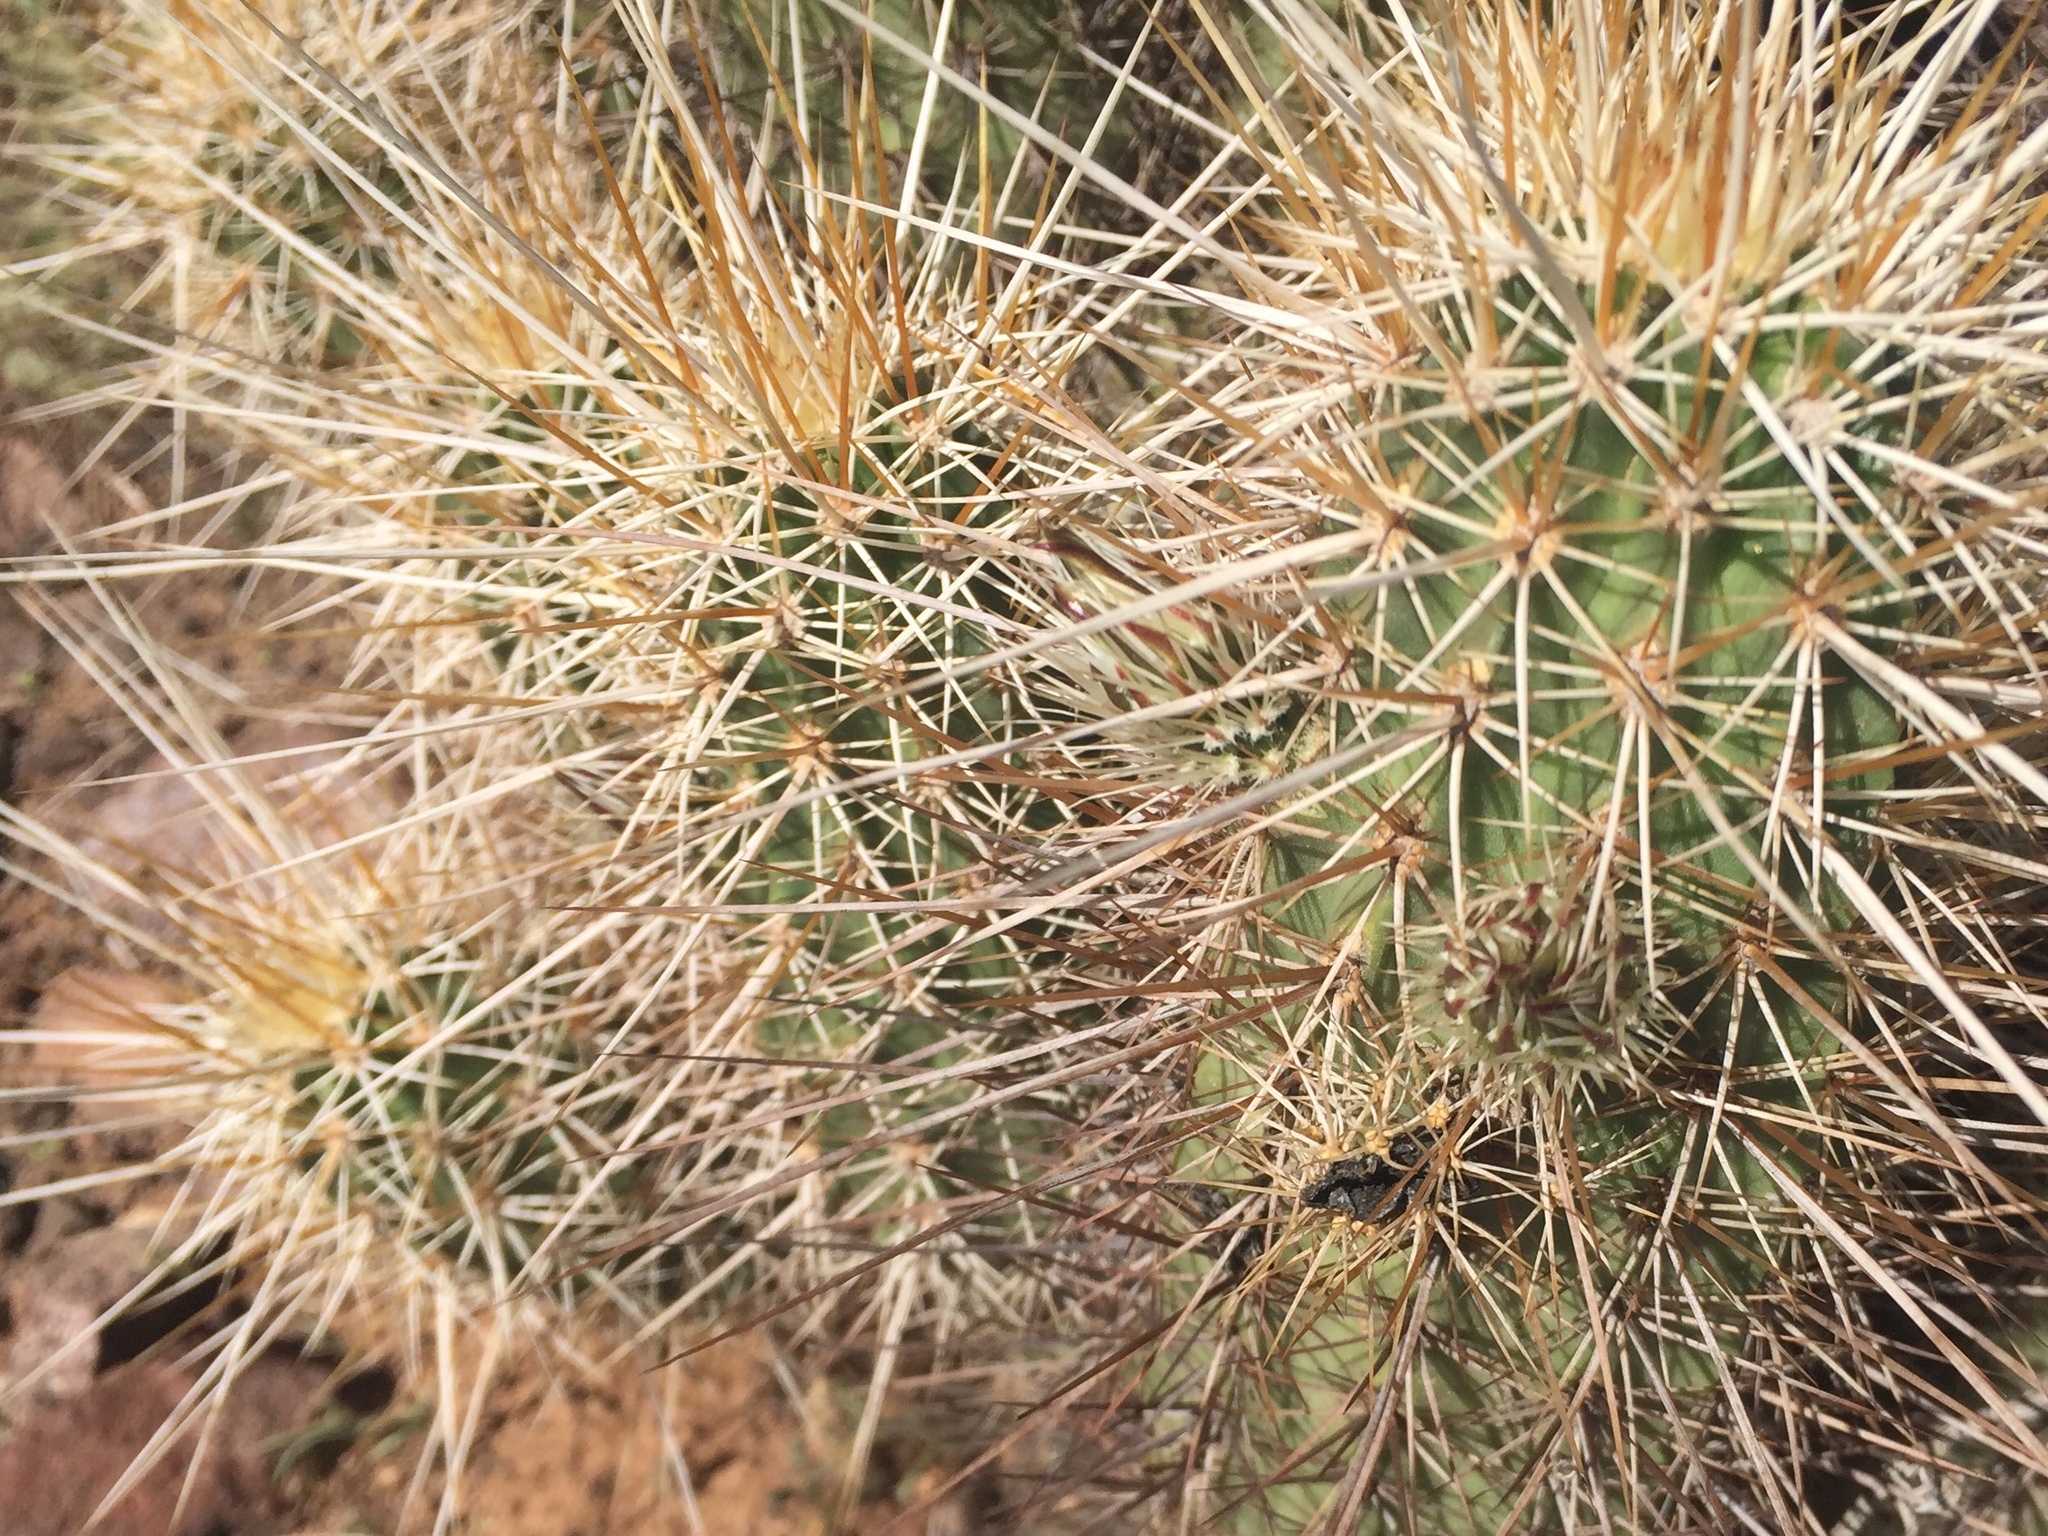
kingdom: Plantae
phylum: Tracheophyta
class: Magnoliopsida
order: Caryophyllales
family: Cactaceae
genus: Echinocereus
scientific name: Echinocereus engelmannii
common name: Engelmann's hedgehog cactus
